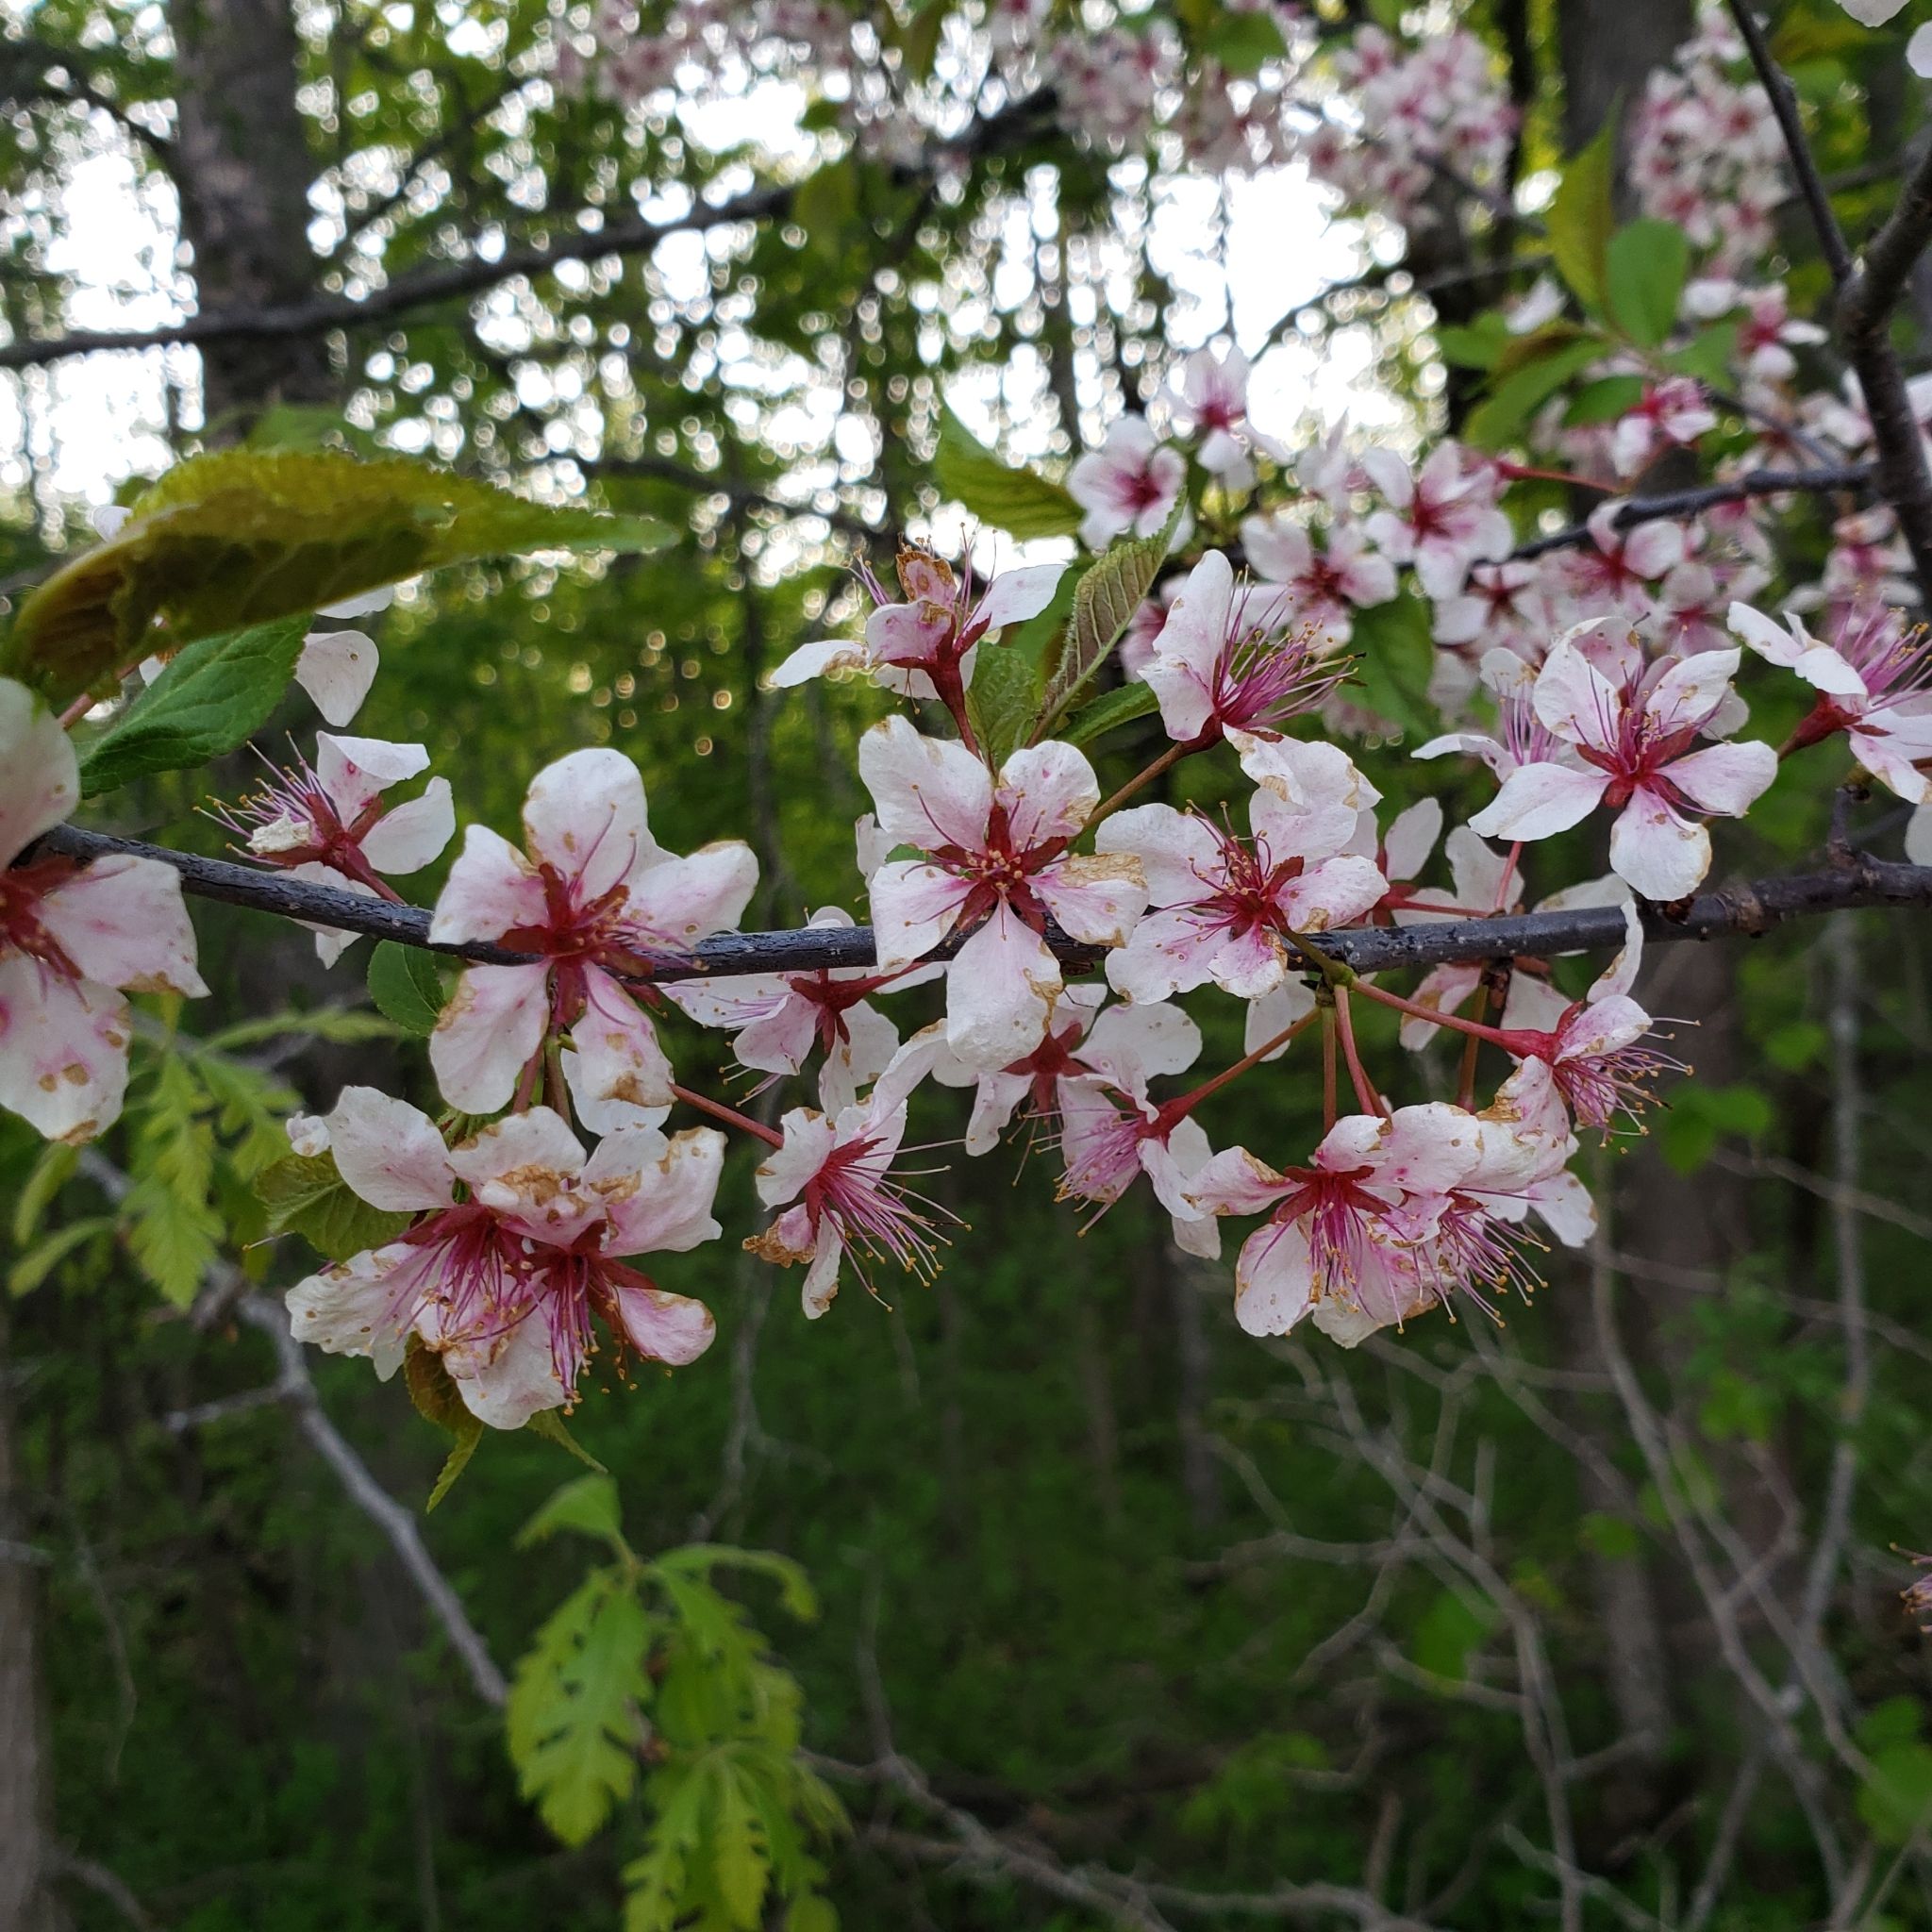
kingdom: Plantae
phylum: Tracheophyta
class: Magnoliopsida
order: Rosales
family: Rosaceae
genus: Prunus
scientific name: Prunus nigra
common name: Black plum
